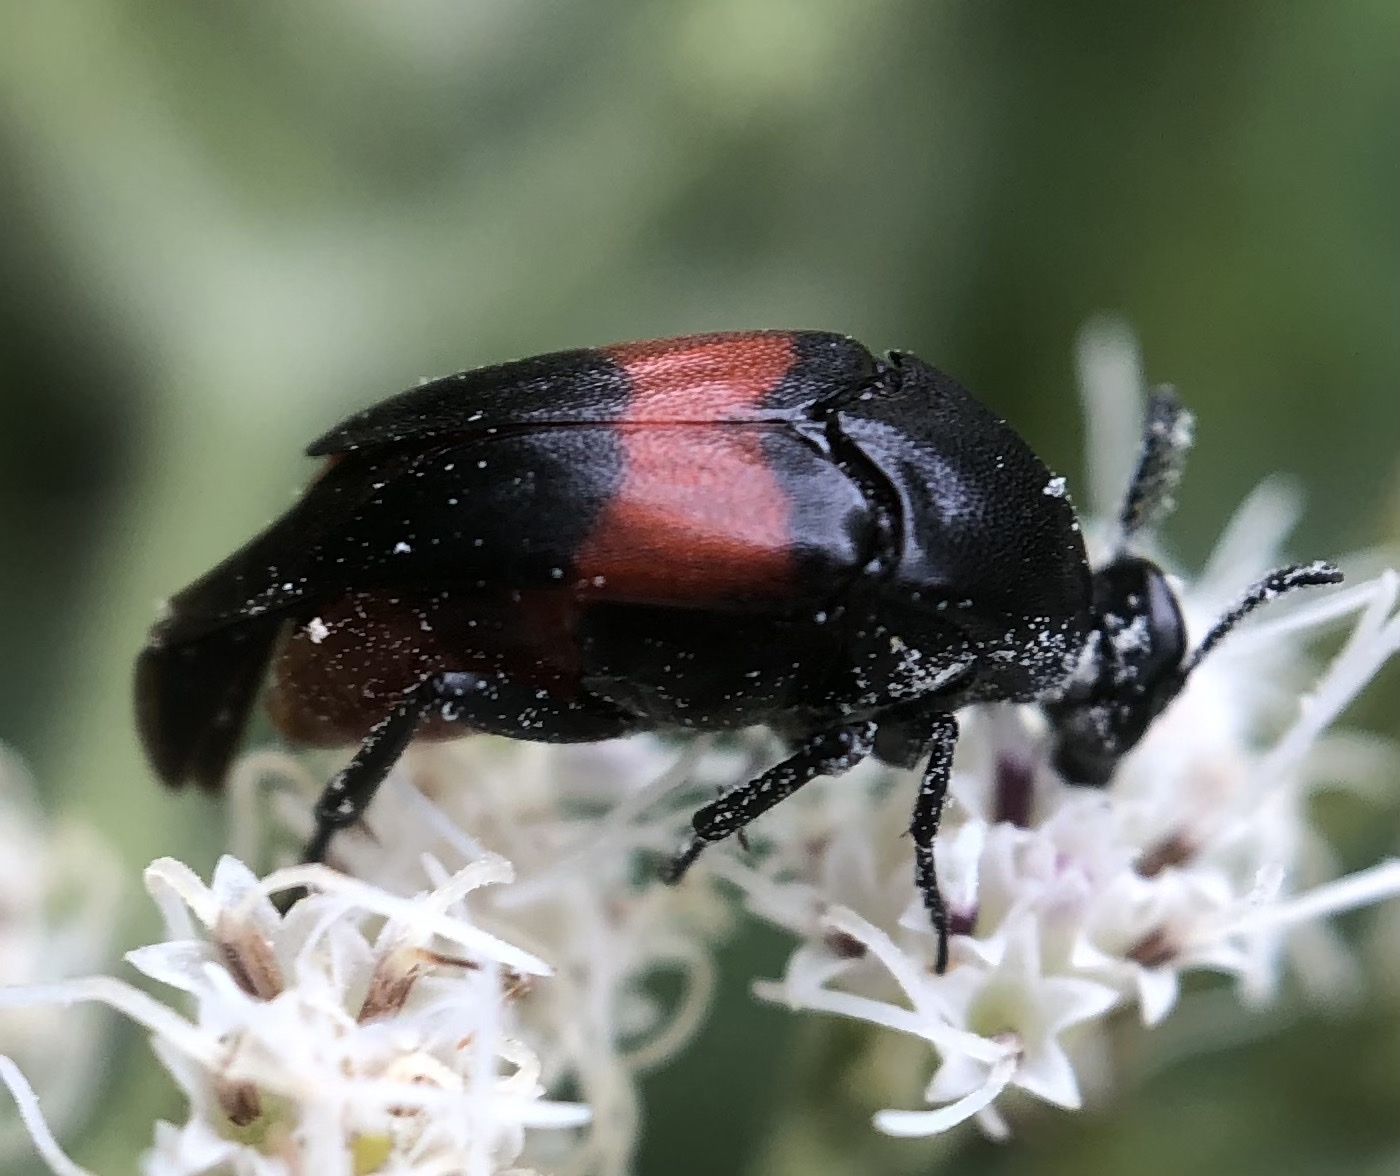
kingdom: Animalia
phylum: Arthropoda
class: Insecta
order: Coleoptera
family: Ripiphoridae
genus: Macrosiagon
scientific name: Macrosiagon cruentum
